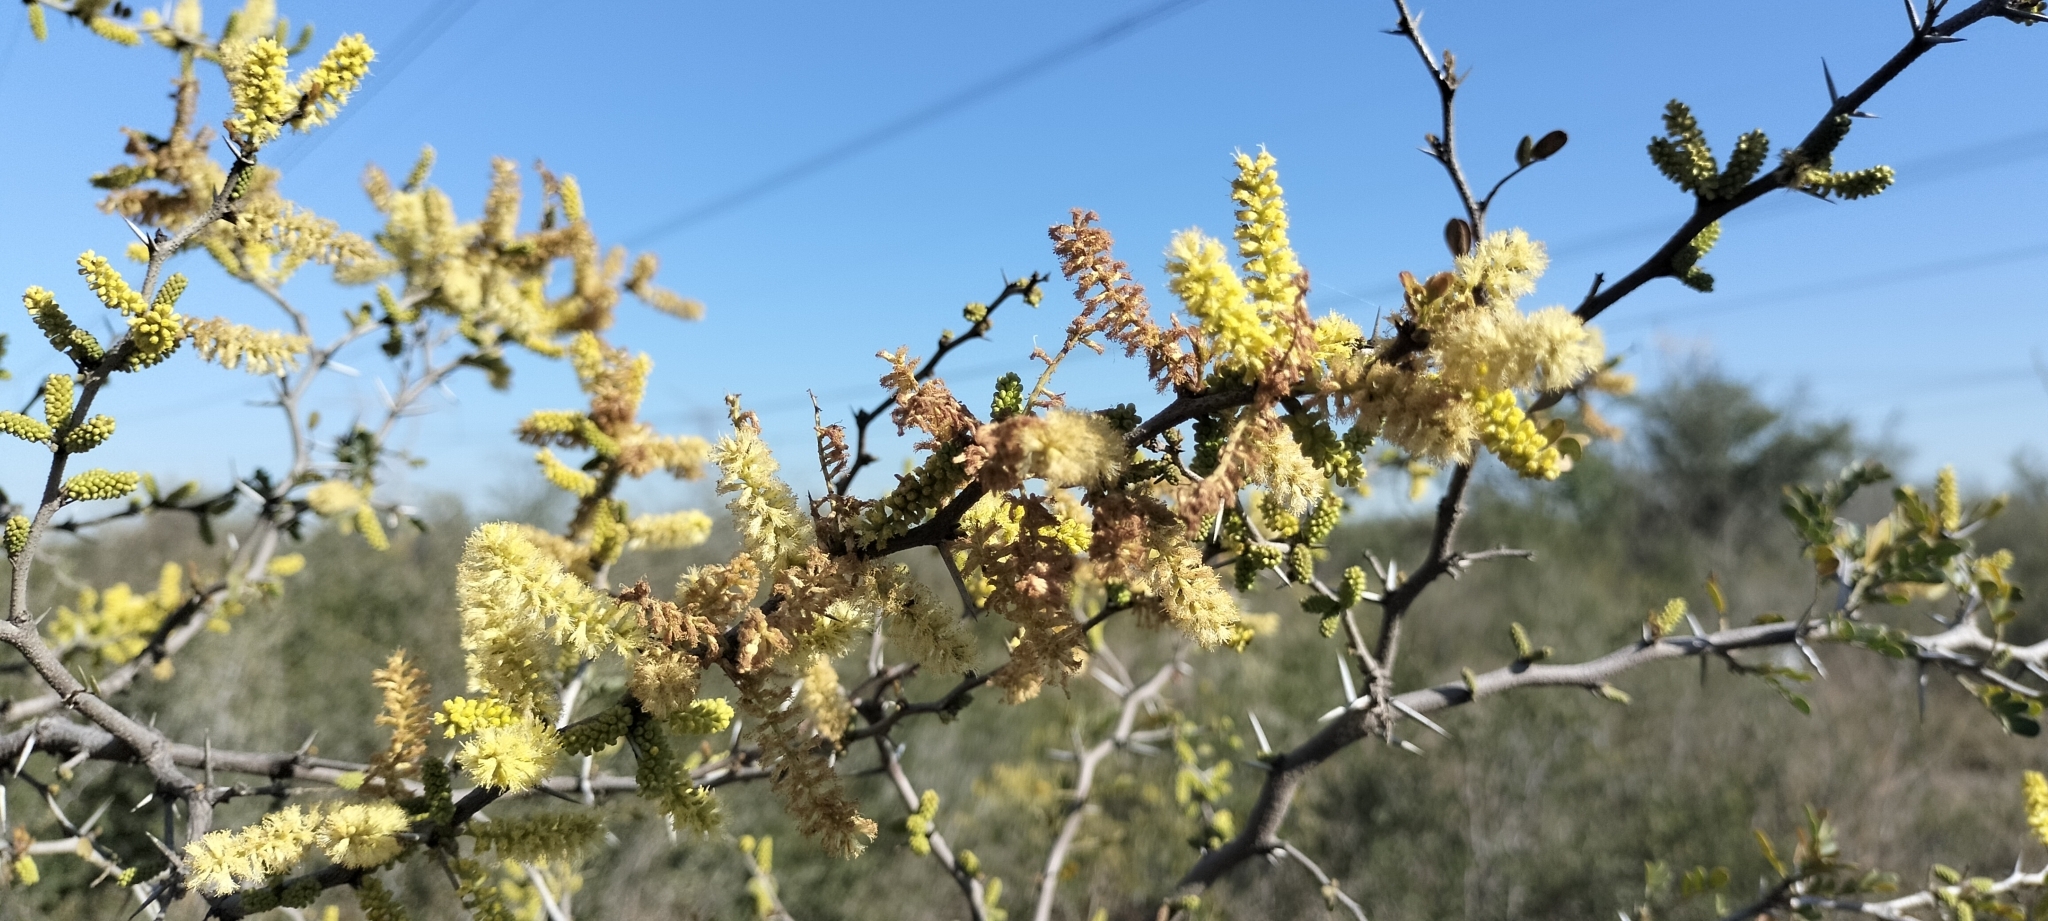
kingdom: Plantae
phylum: Tracheophyta
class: Magnoliopsida
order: Fabales
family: Fabaceae
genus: Vachellia
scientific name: Vachellia rigidula
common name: Blackbrush
